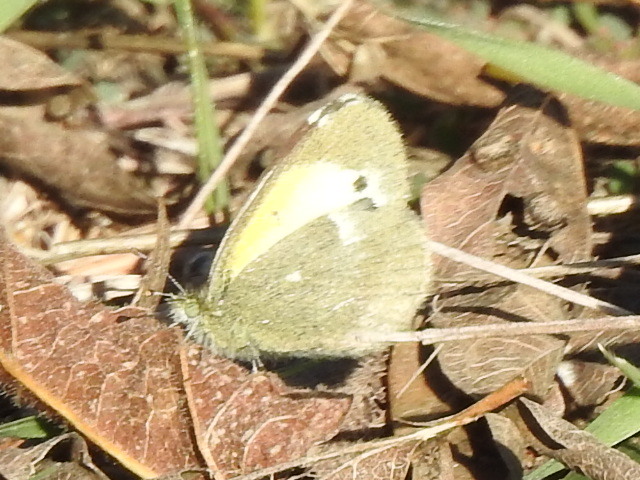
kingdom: Animalia
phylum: Arthropoda
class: Insecta
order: Lepidoptera
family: Pieridae
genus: Nathalis
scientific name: Nathalis iole
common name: Dainty sulphur
